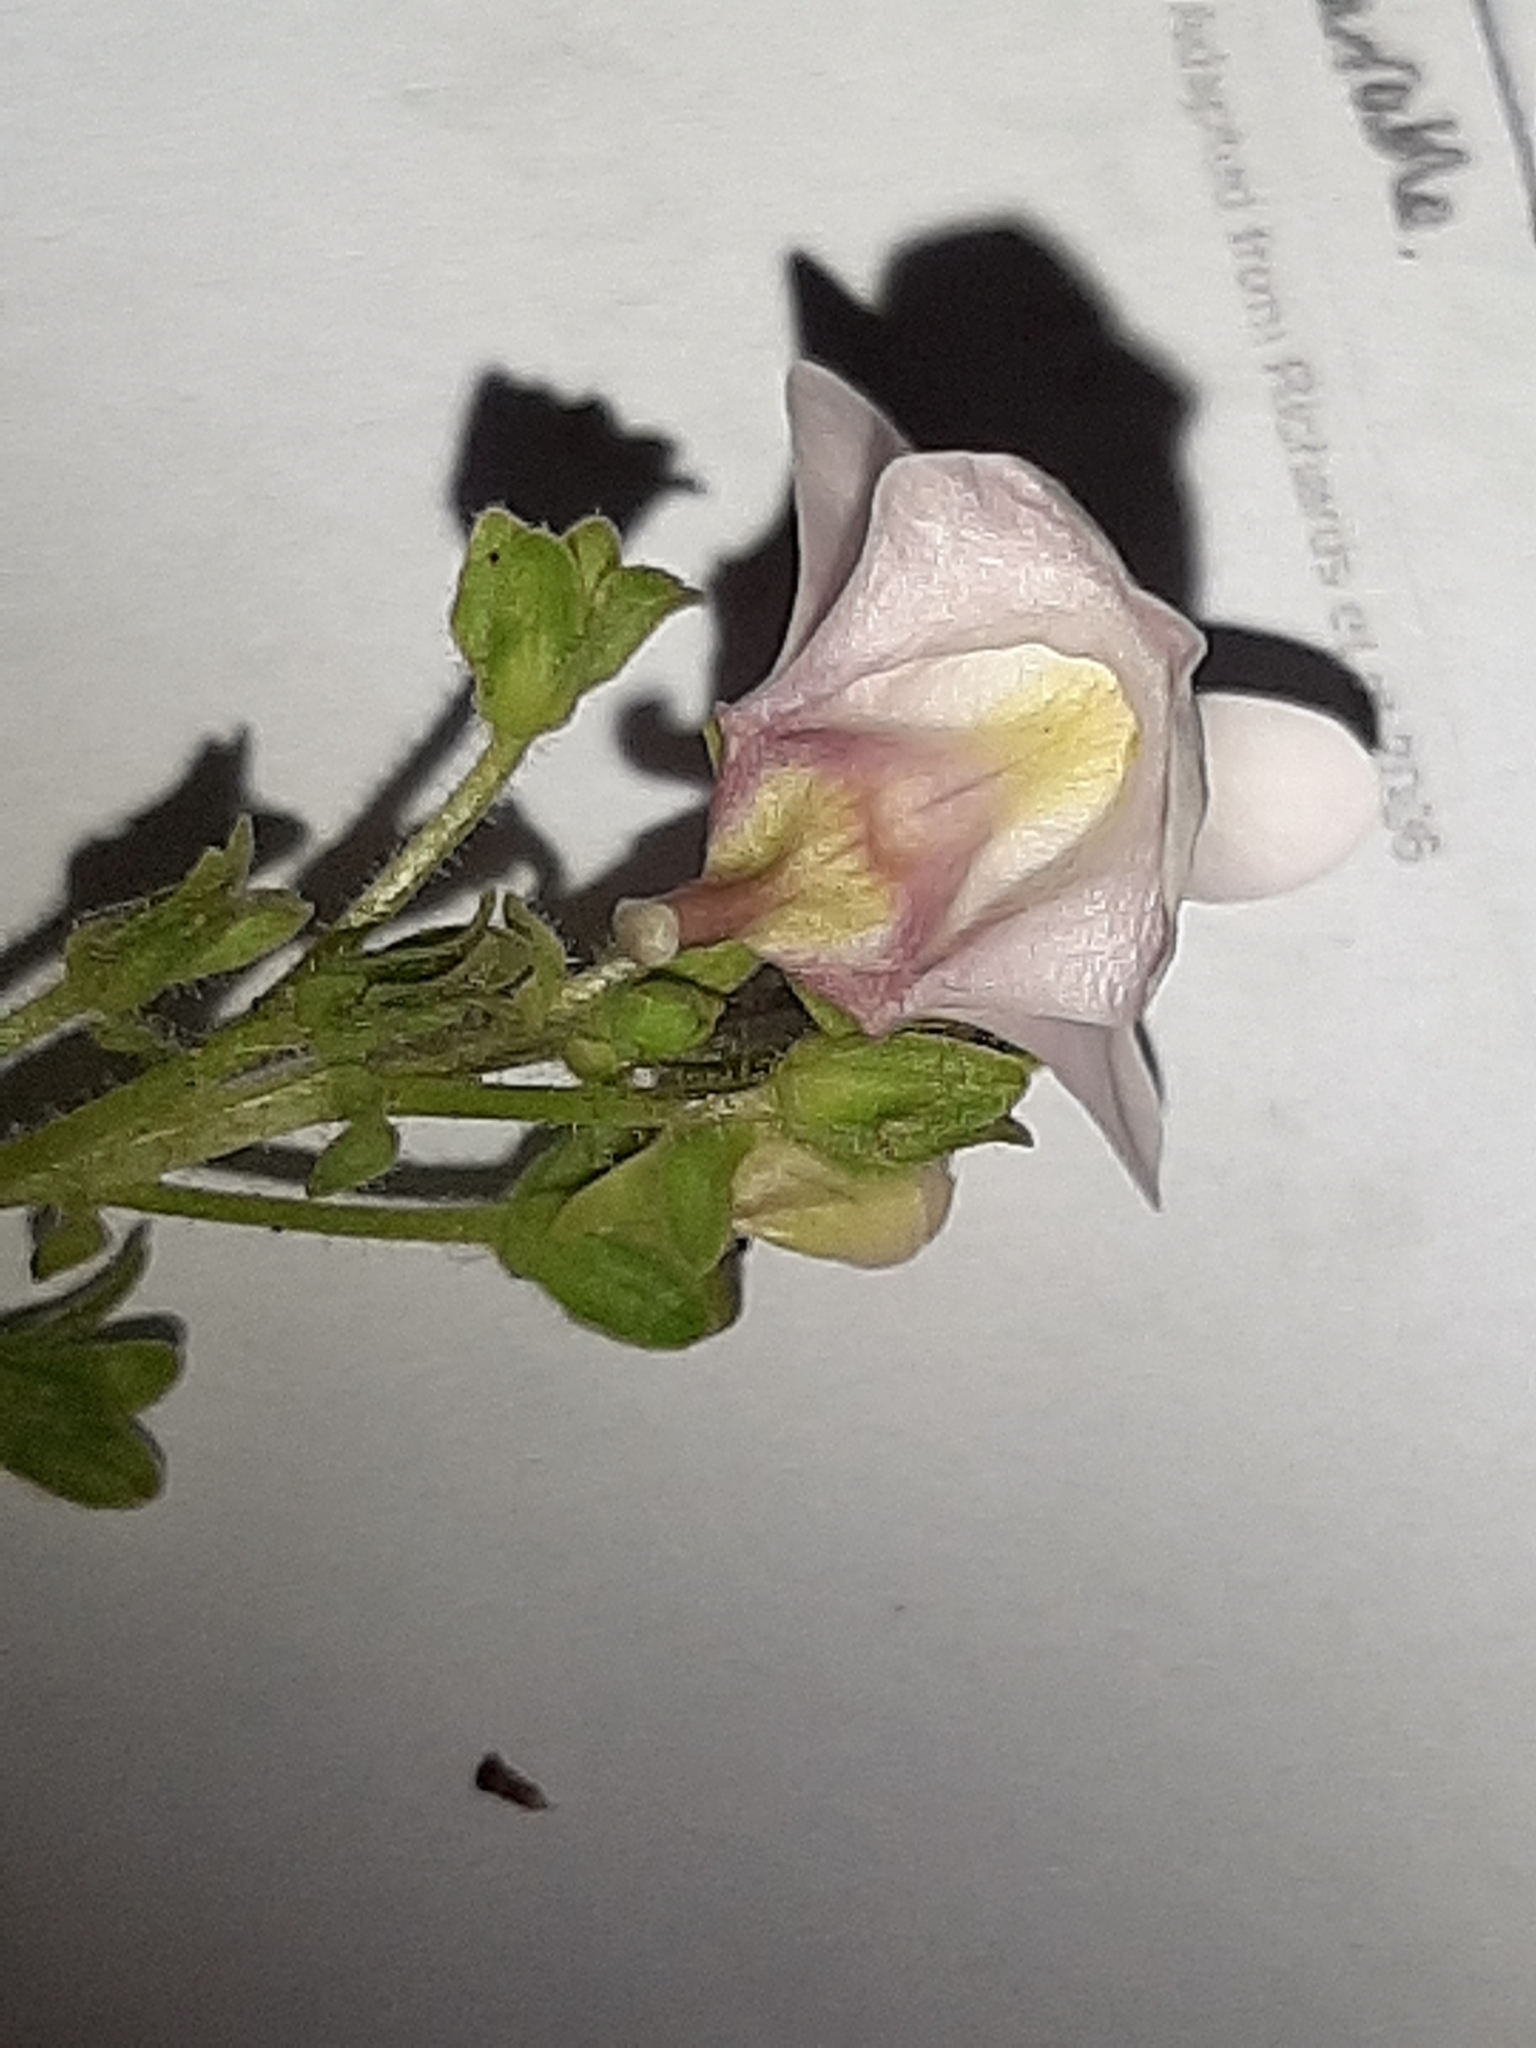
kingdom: Plantae
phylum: Tracheophyta
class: Magnoliopsida
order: Lamiales
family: Scrophulariaceae
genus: Nemesia
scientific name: Nemesia fruticans
